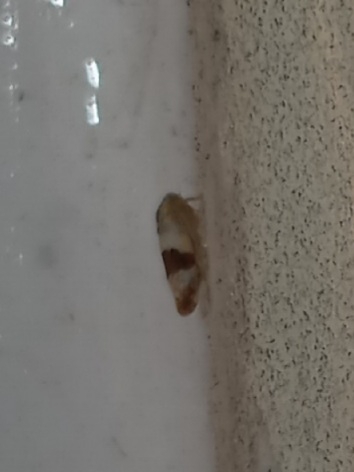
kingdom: Animalia
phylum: Arthropoda
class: Insecta
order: Hemiptera
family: Cicadellidae
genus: Norvellina
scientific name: Norvellina seminuda
